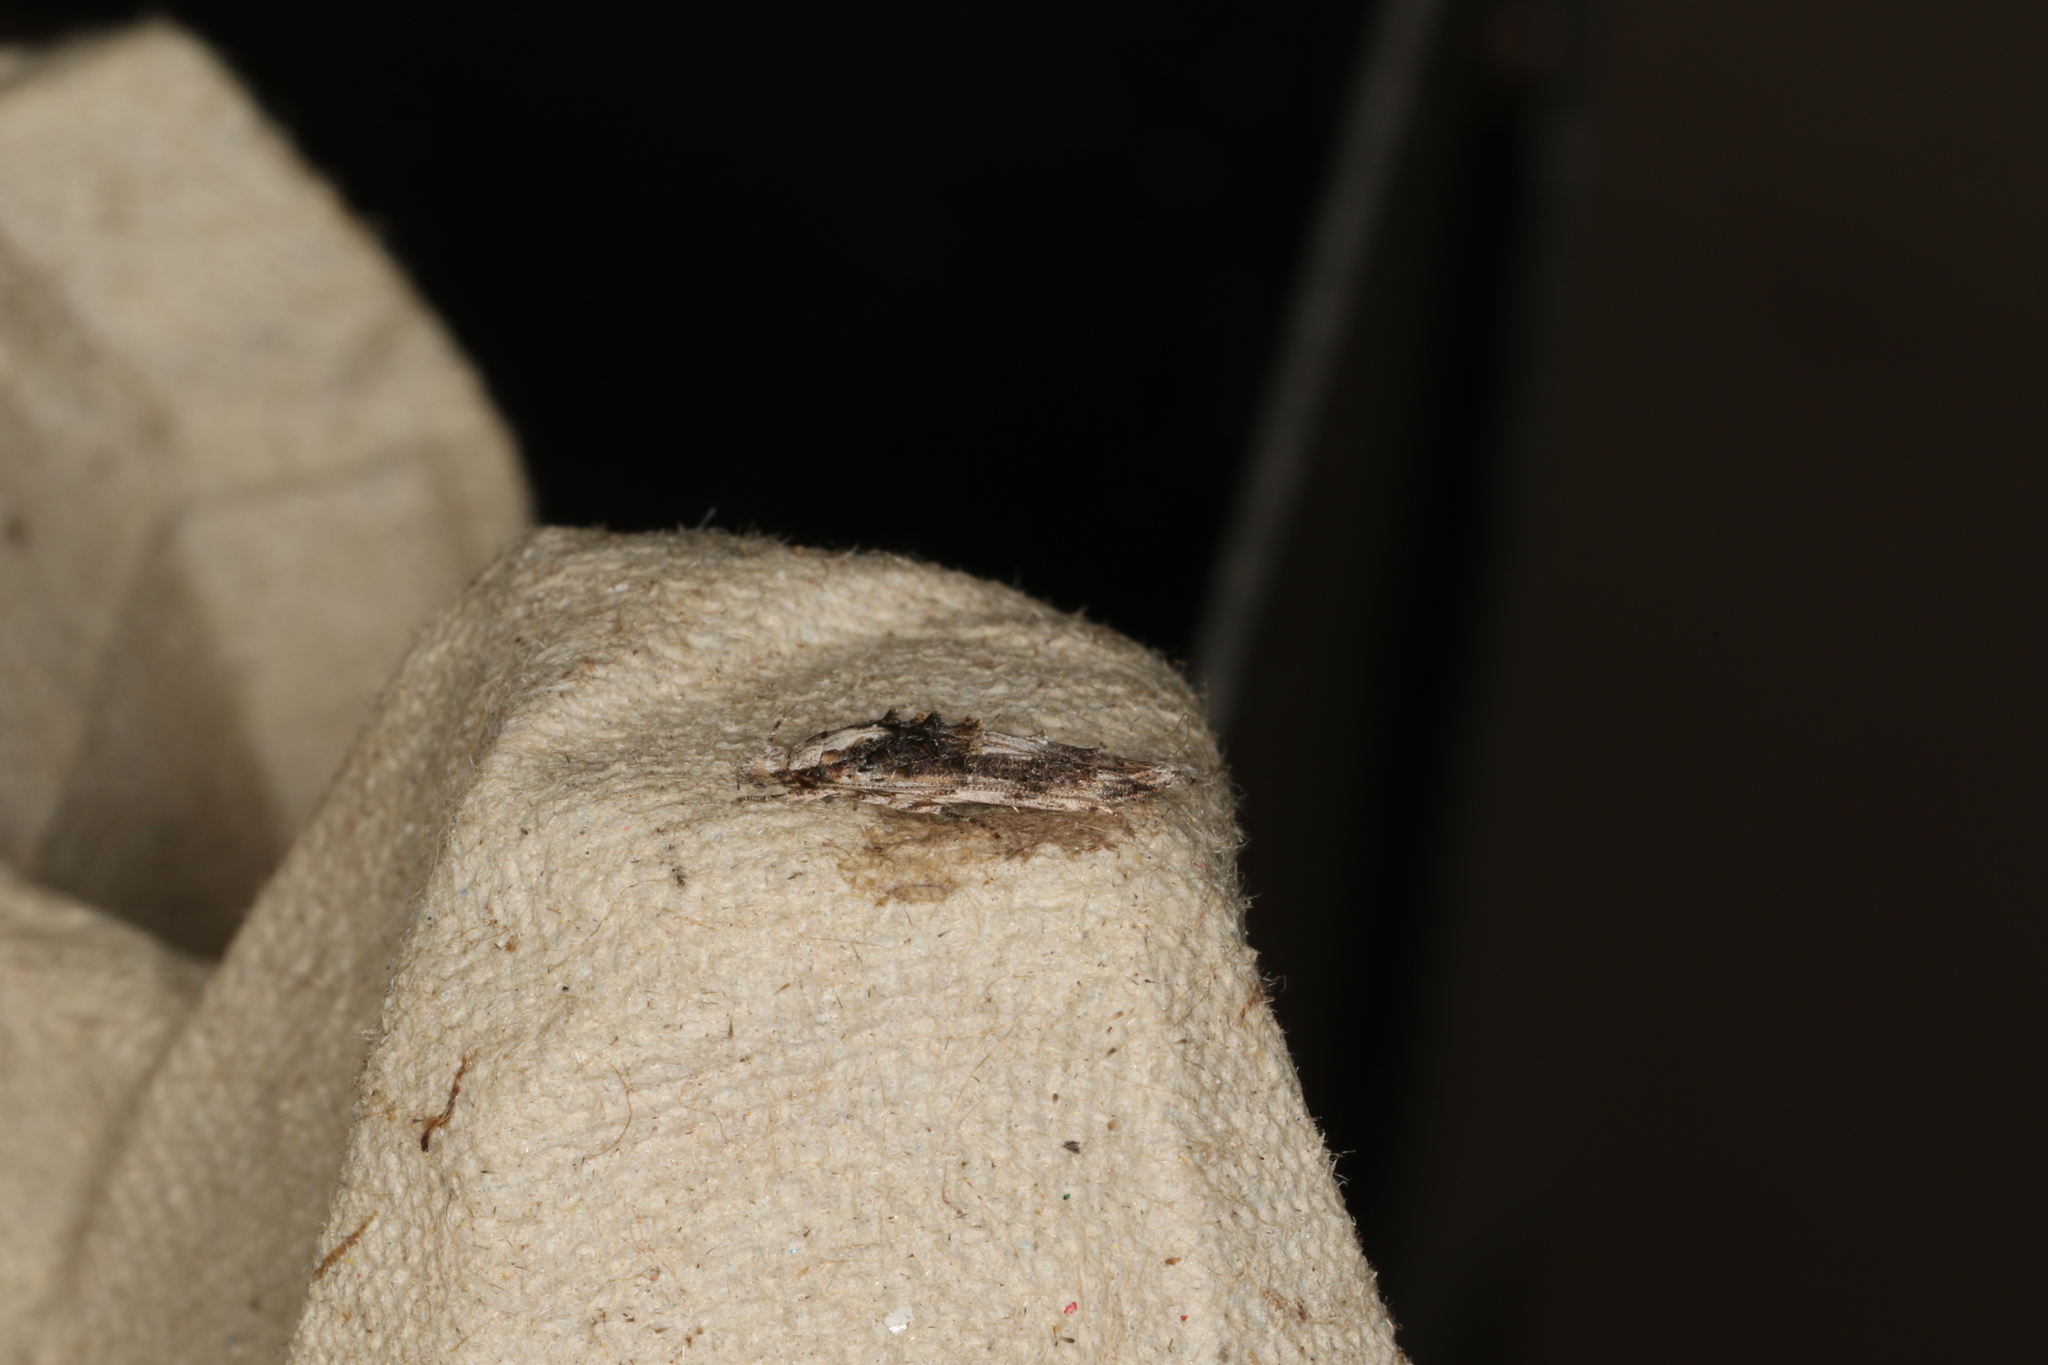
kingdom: Animalia
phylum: Arthropoda
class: Insecta
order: Lepidoptera
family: Elachistidae
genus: Trachydora
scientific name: Trachydora musaea
